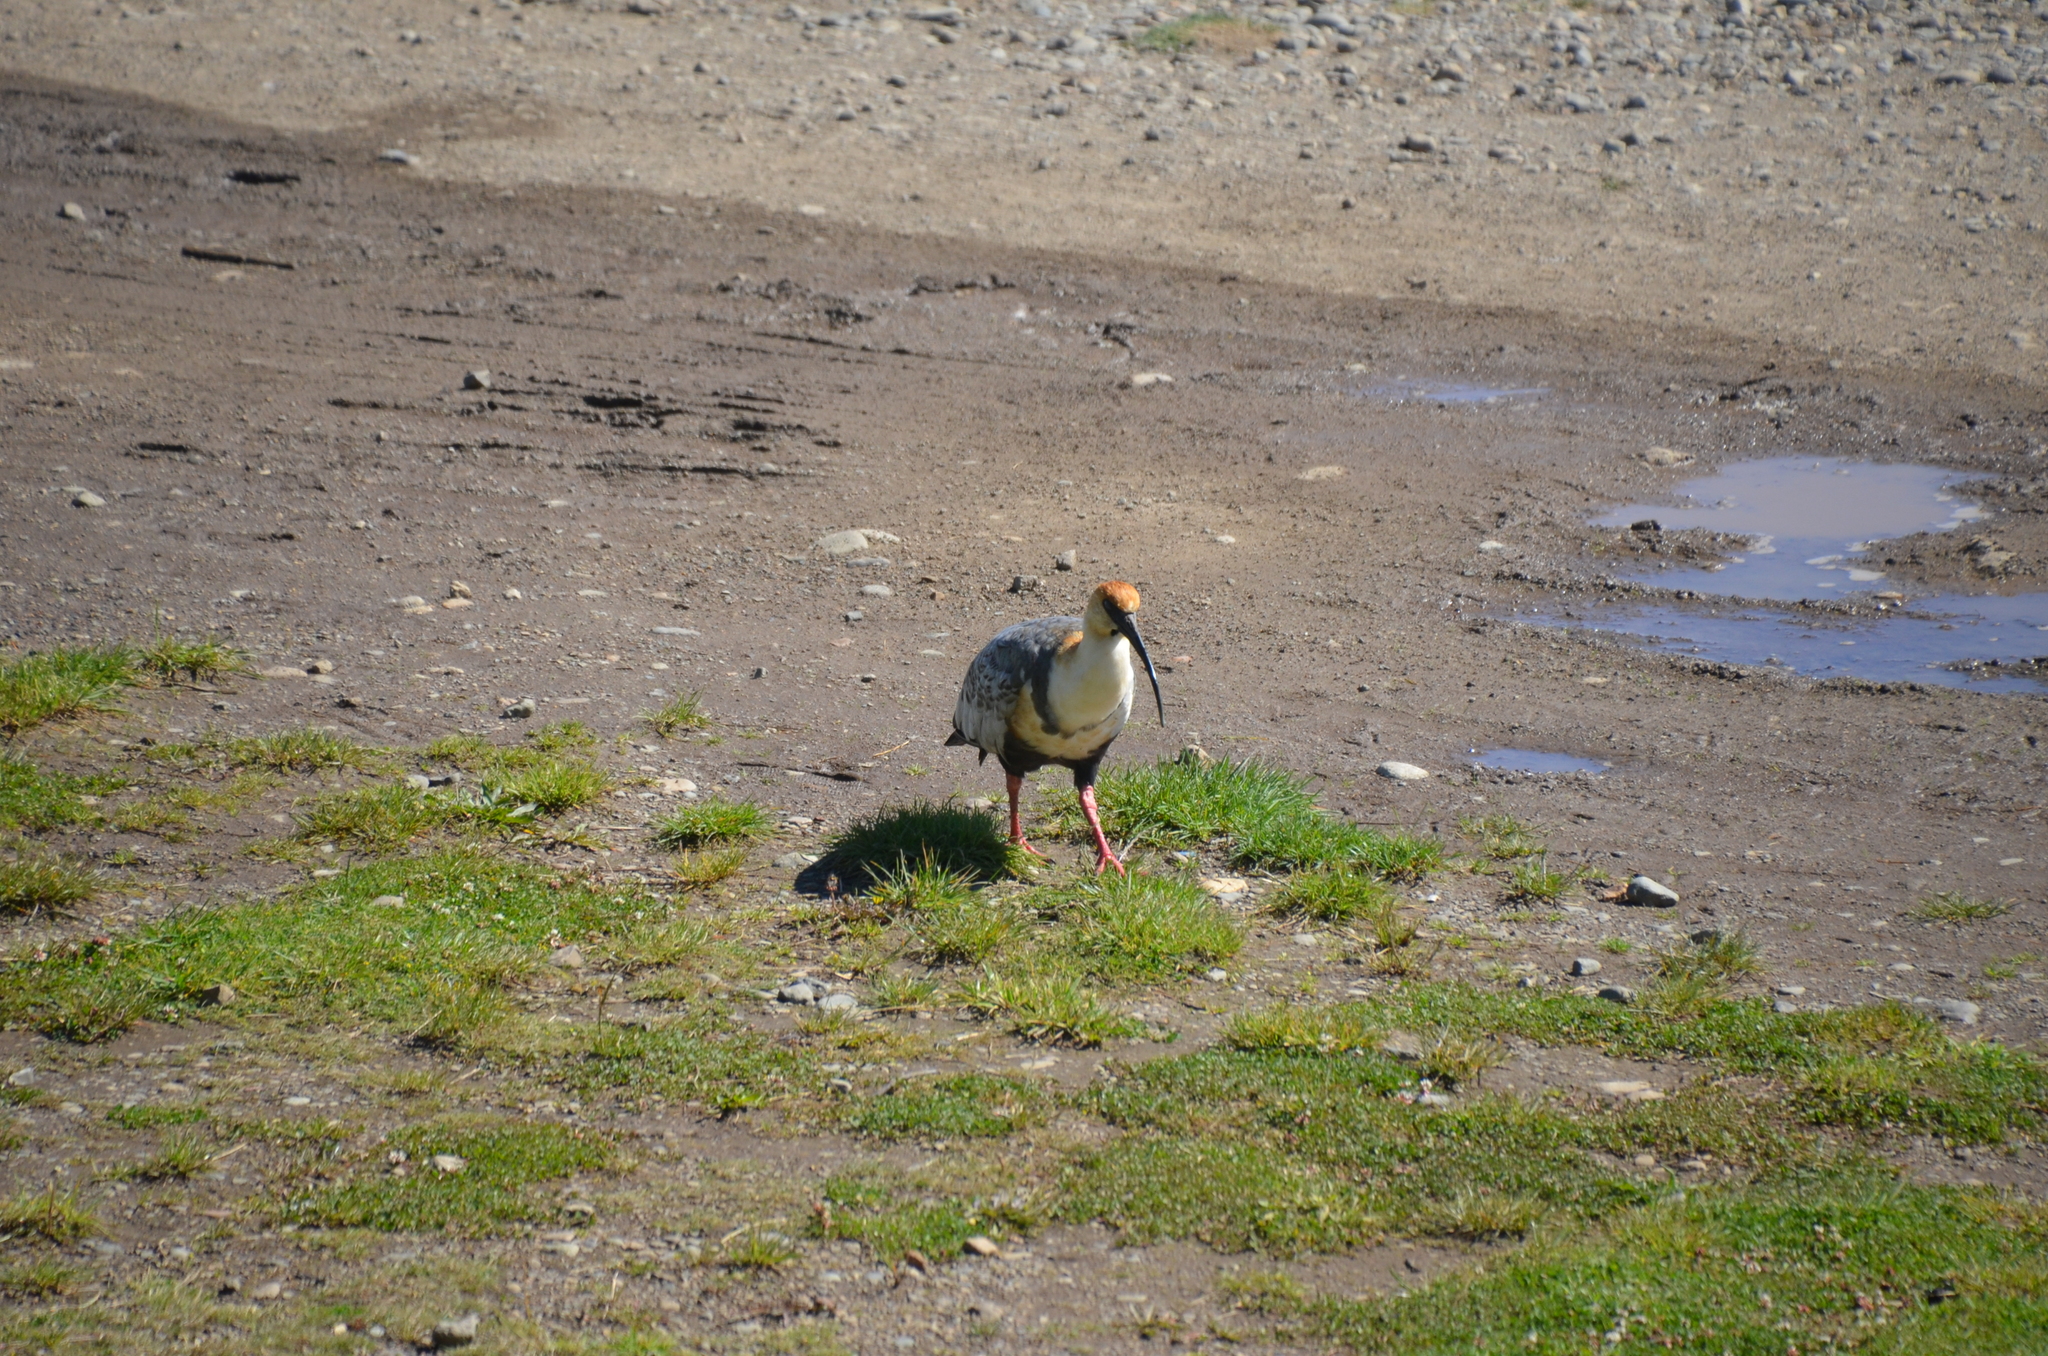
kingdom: Animalia
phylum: Chordata
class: Aves
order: Pelecaniformes
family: Threskiornithidae
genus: Theristicus
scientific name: Theristicus melanopis
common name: Black-faced ibis
